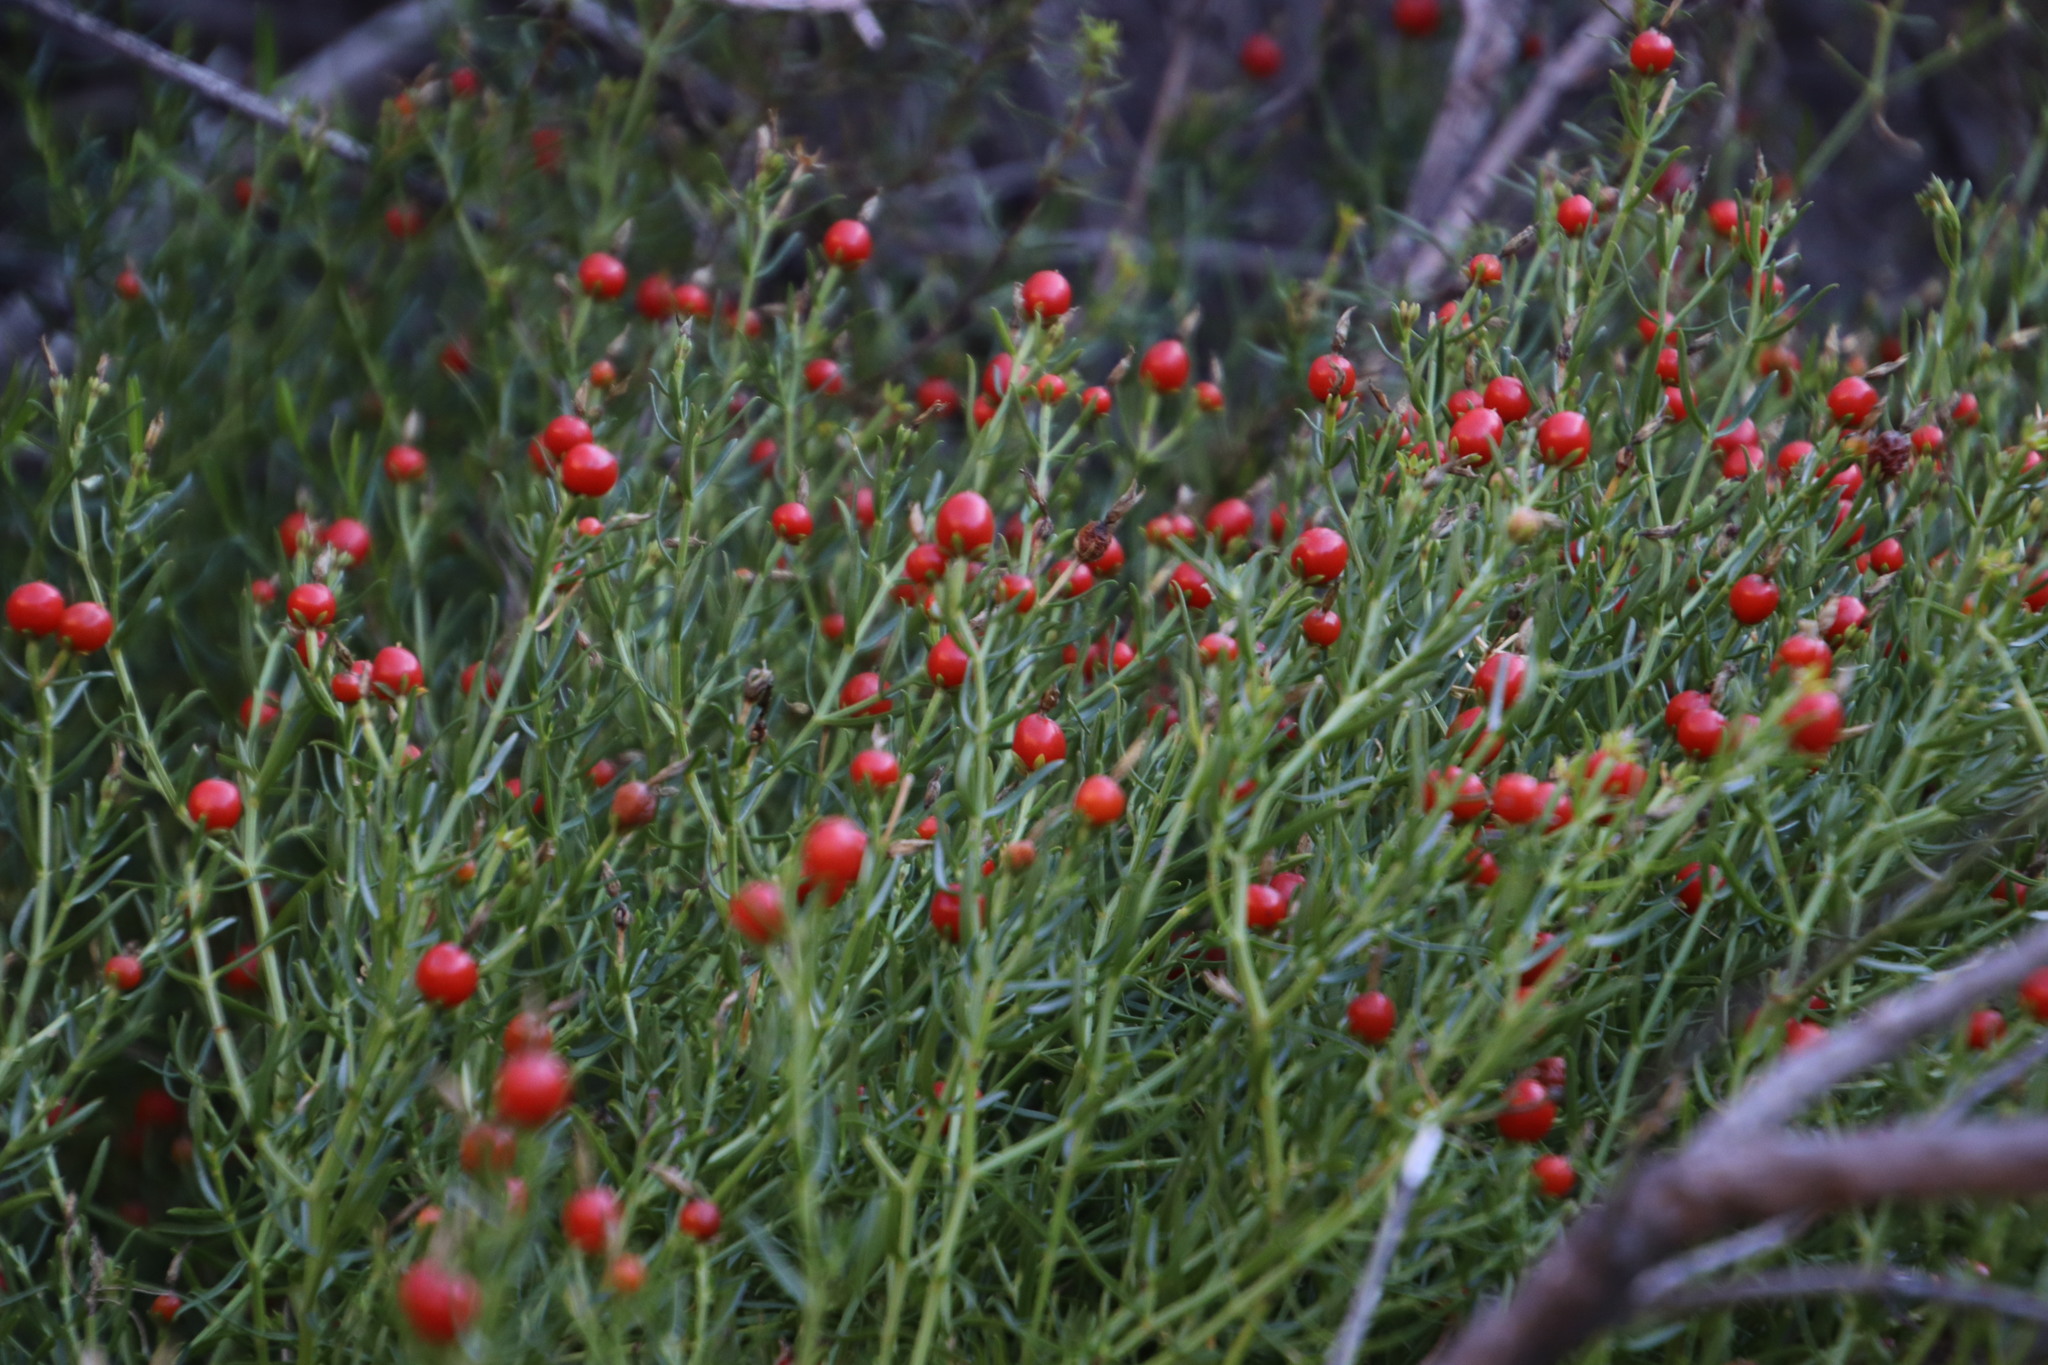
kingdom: Plantae
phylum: Tracheophyta
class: Magnoliopsida
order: Gentianales
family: Gentianaceae
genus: Chironia
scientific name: Chironia baccifera
